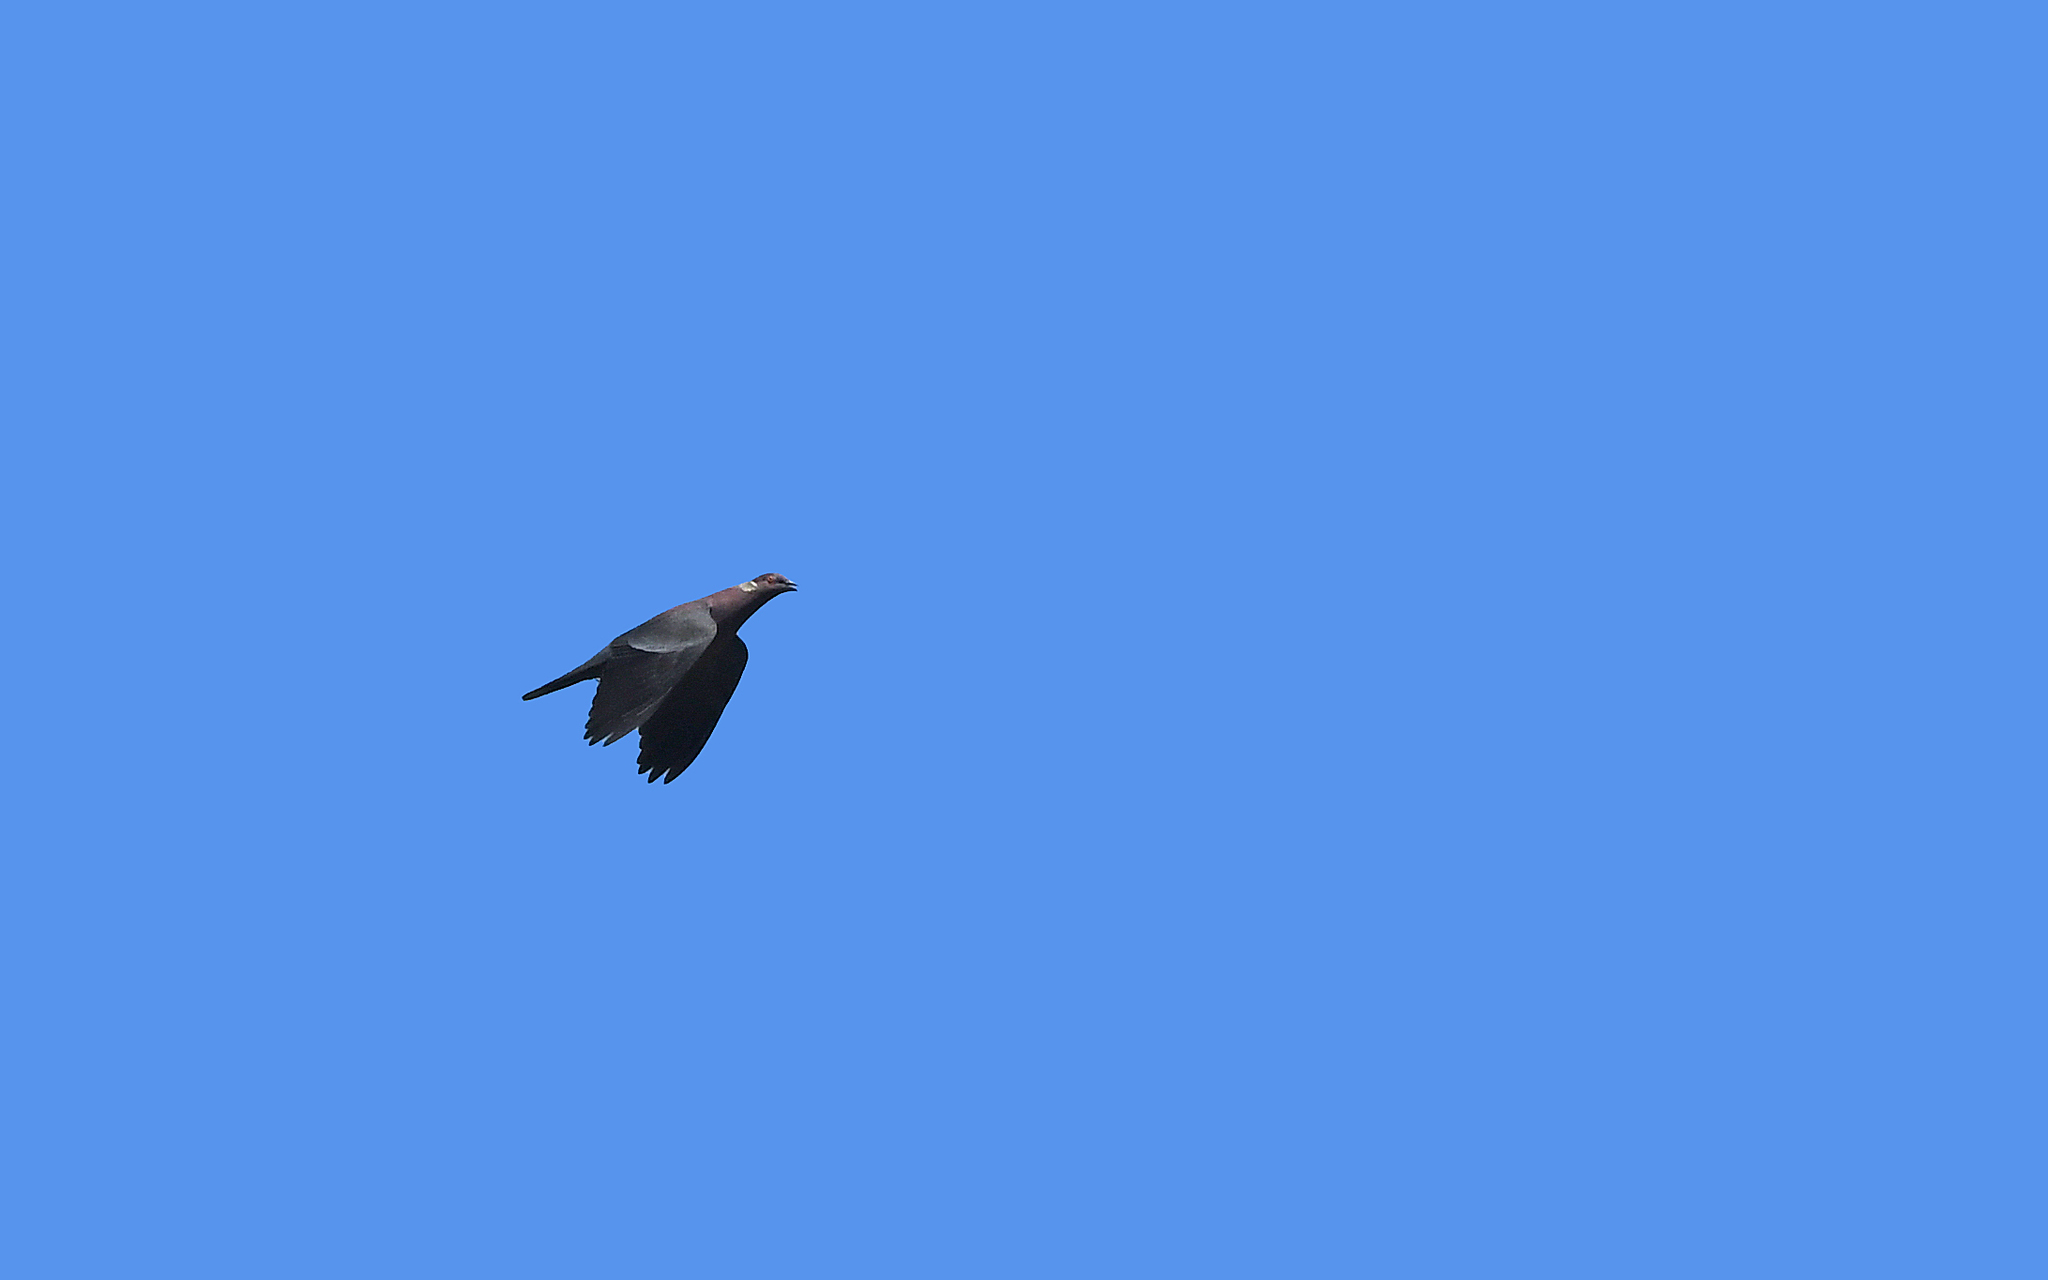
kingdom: Animalia
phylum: Chordata
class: Aves
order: Columbiformes
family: Columbidae
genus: Patagioenas
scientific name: Patagioenas araucana
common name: Chilean pigeon
